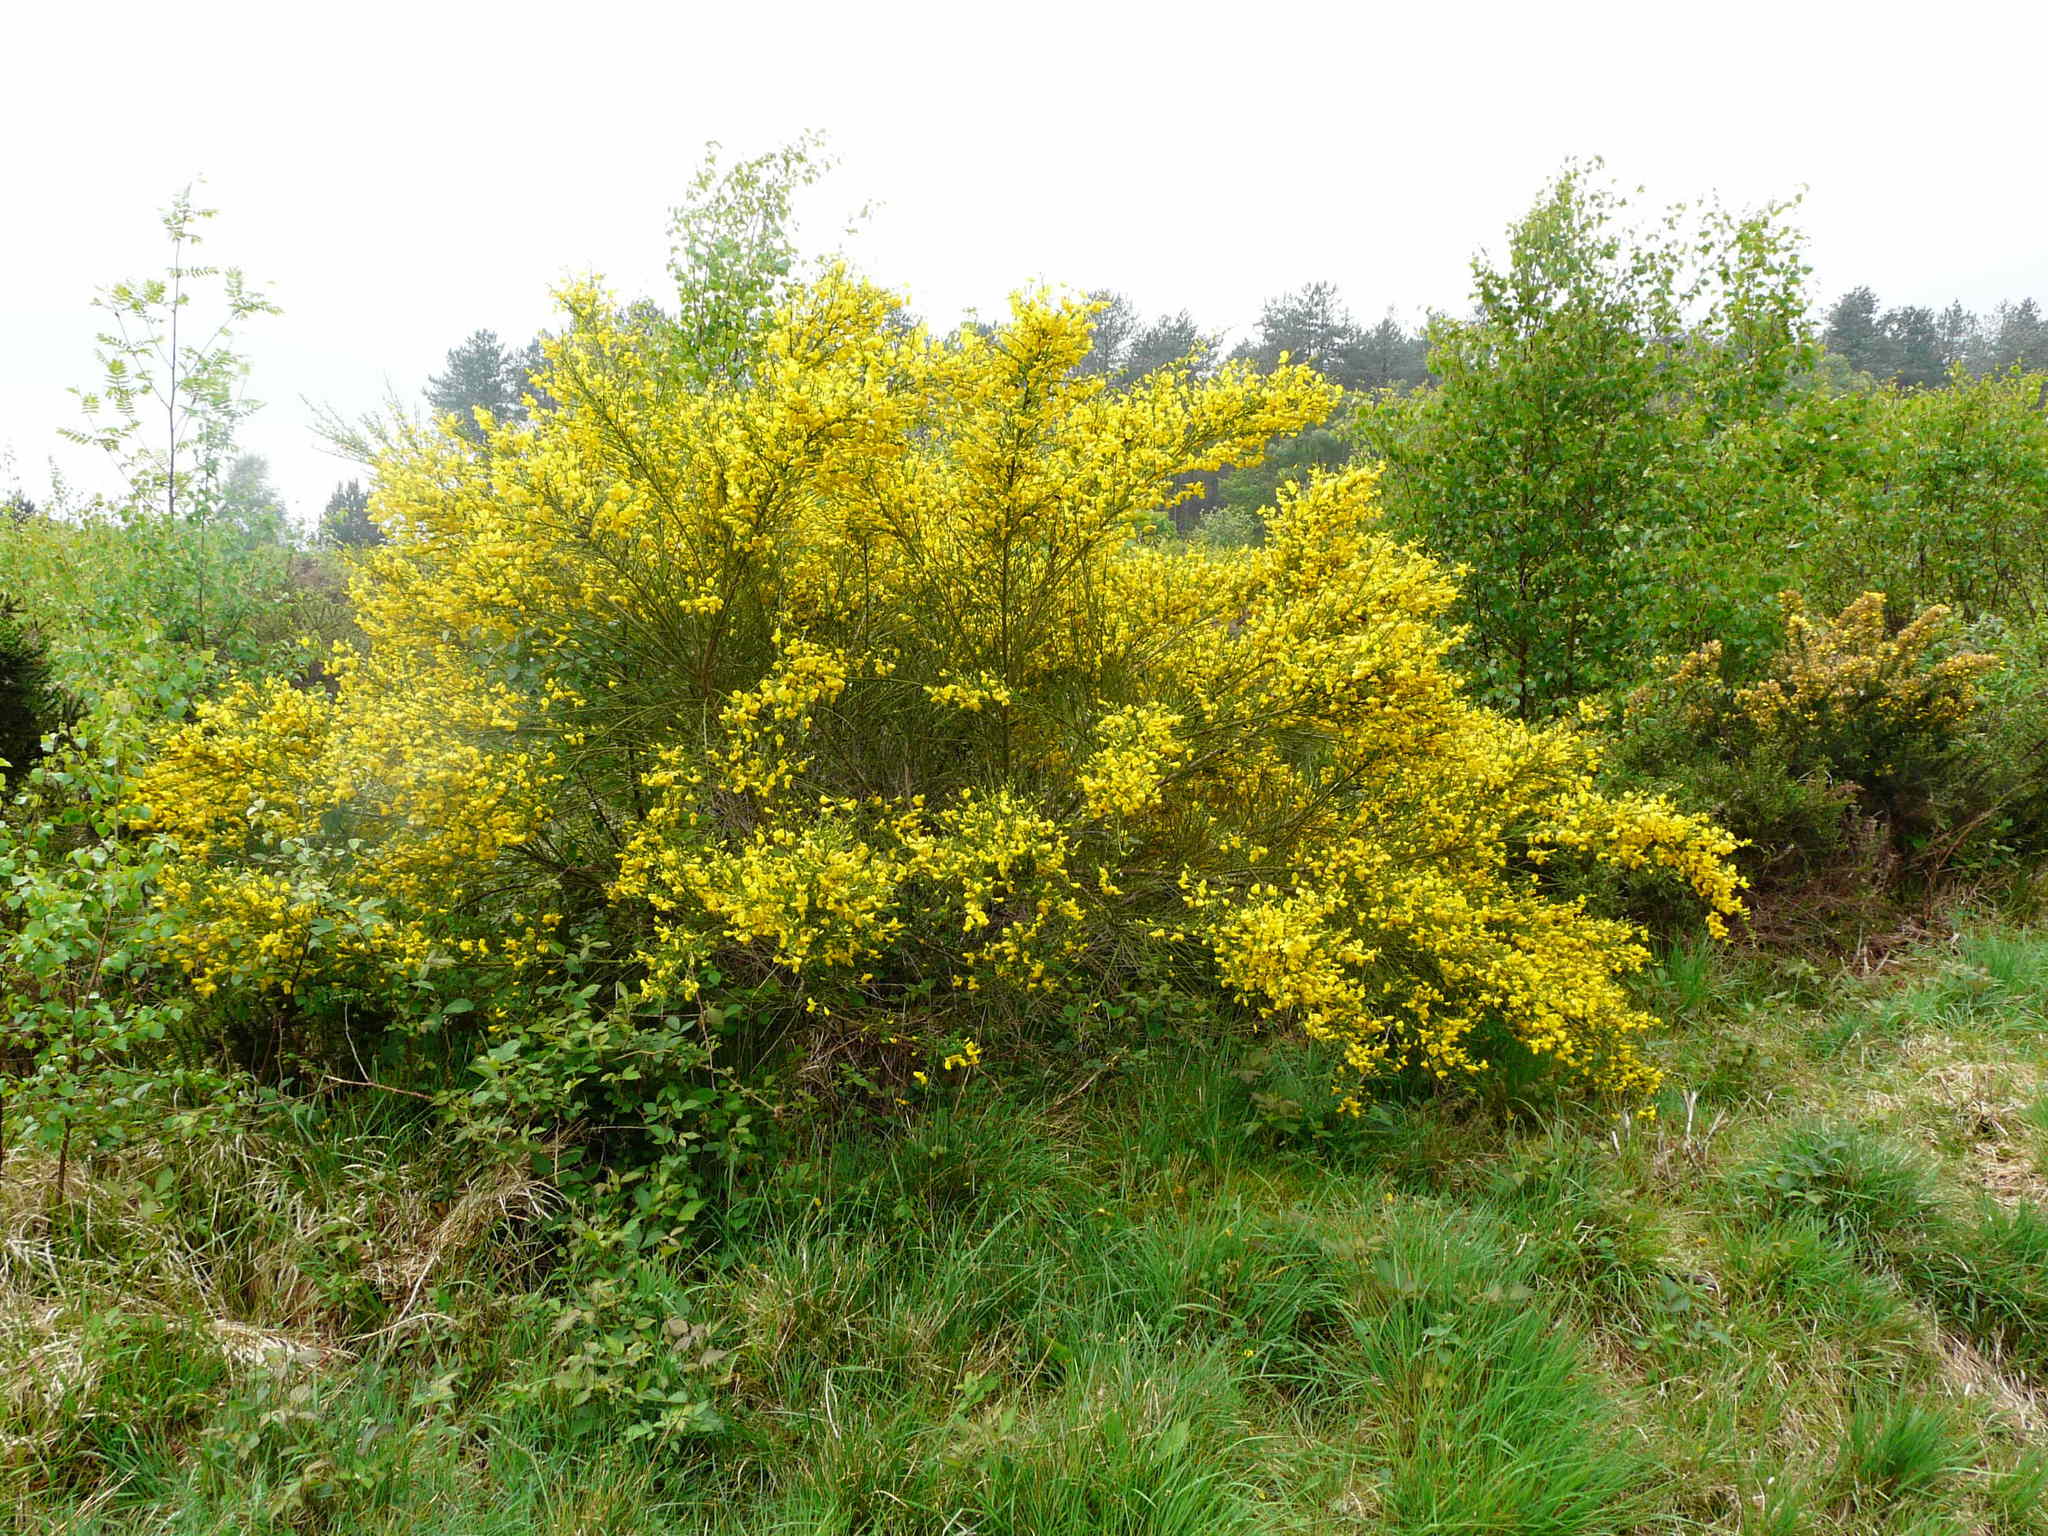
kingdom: Plantae
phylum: Tracheophyta
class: Magnoliopsida
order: Fabales
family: Fabaceae
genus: Cytisus
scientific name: Cytisus scoparius
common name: Scotch broom
